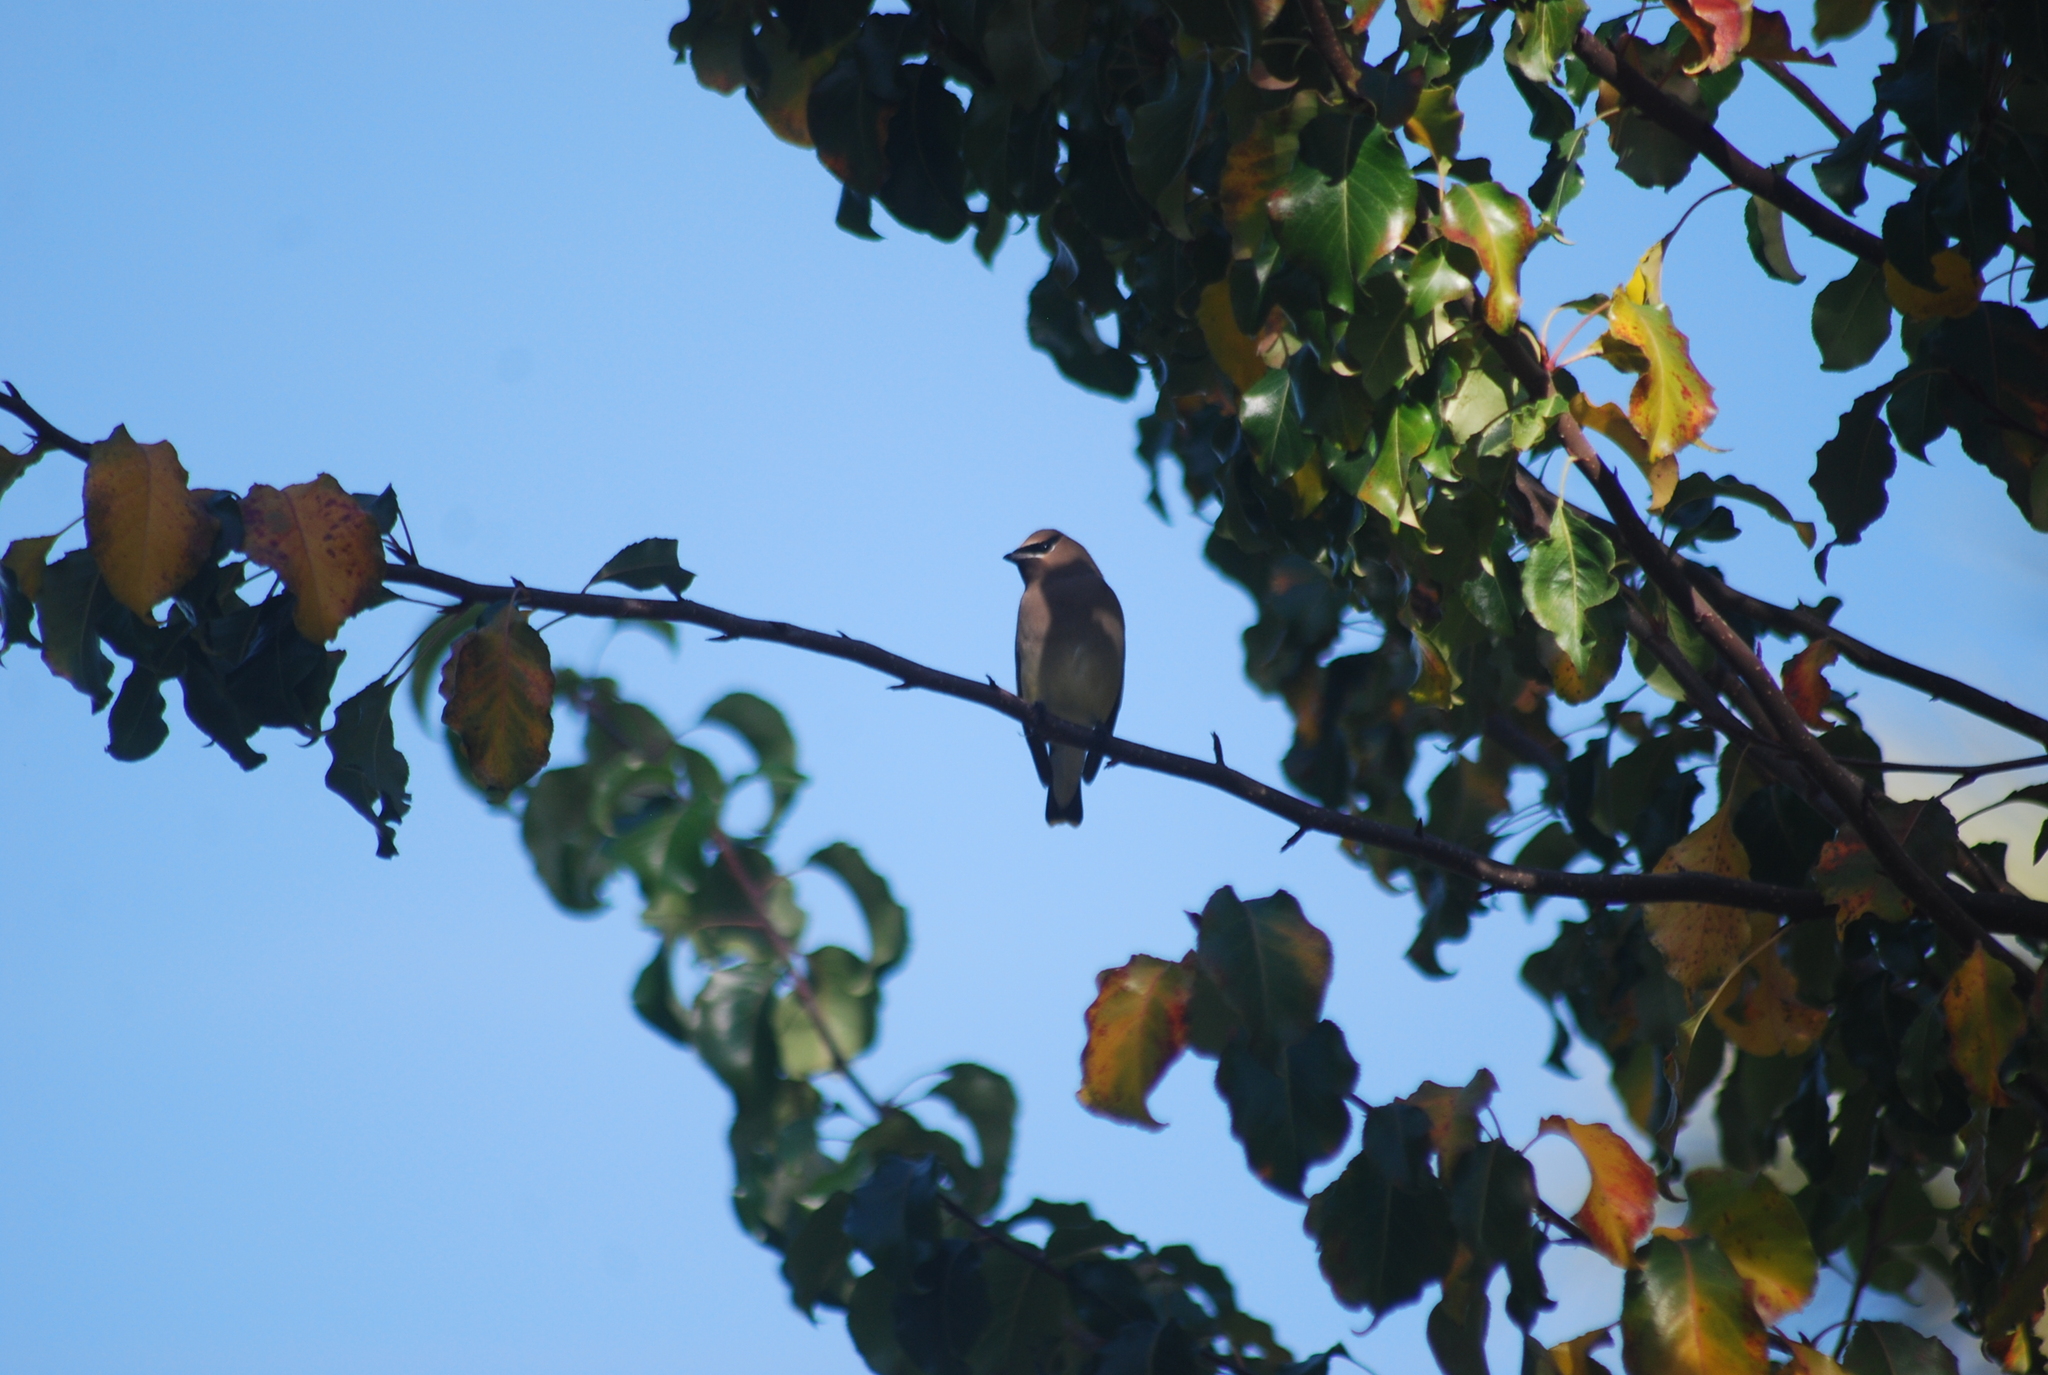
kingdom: Animalia
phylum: Chordata
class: Aves
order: Passeriformes
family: Bombycillidae
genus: Bombycilla
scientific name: Bombycilla cedrorum
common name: Cedar waxwing
